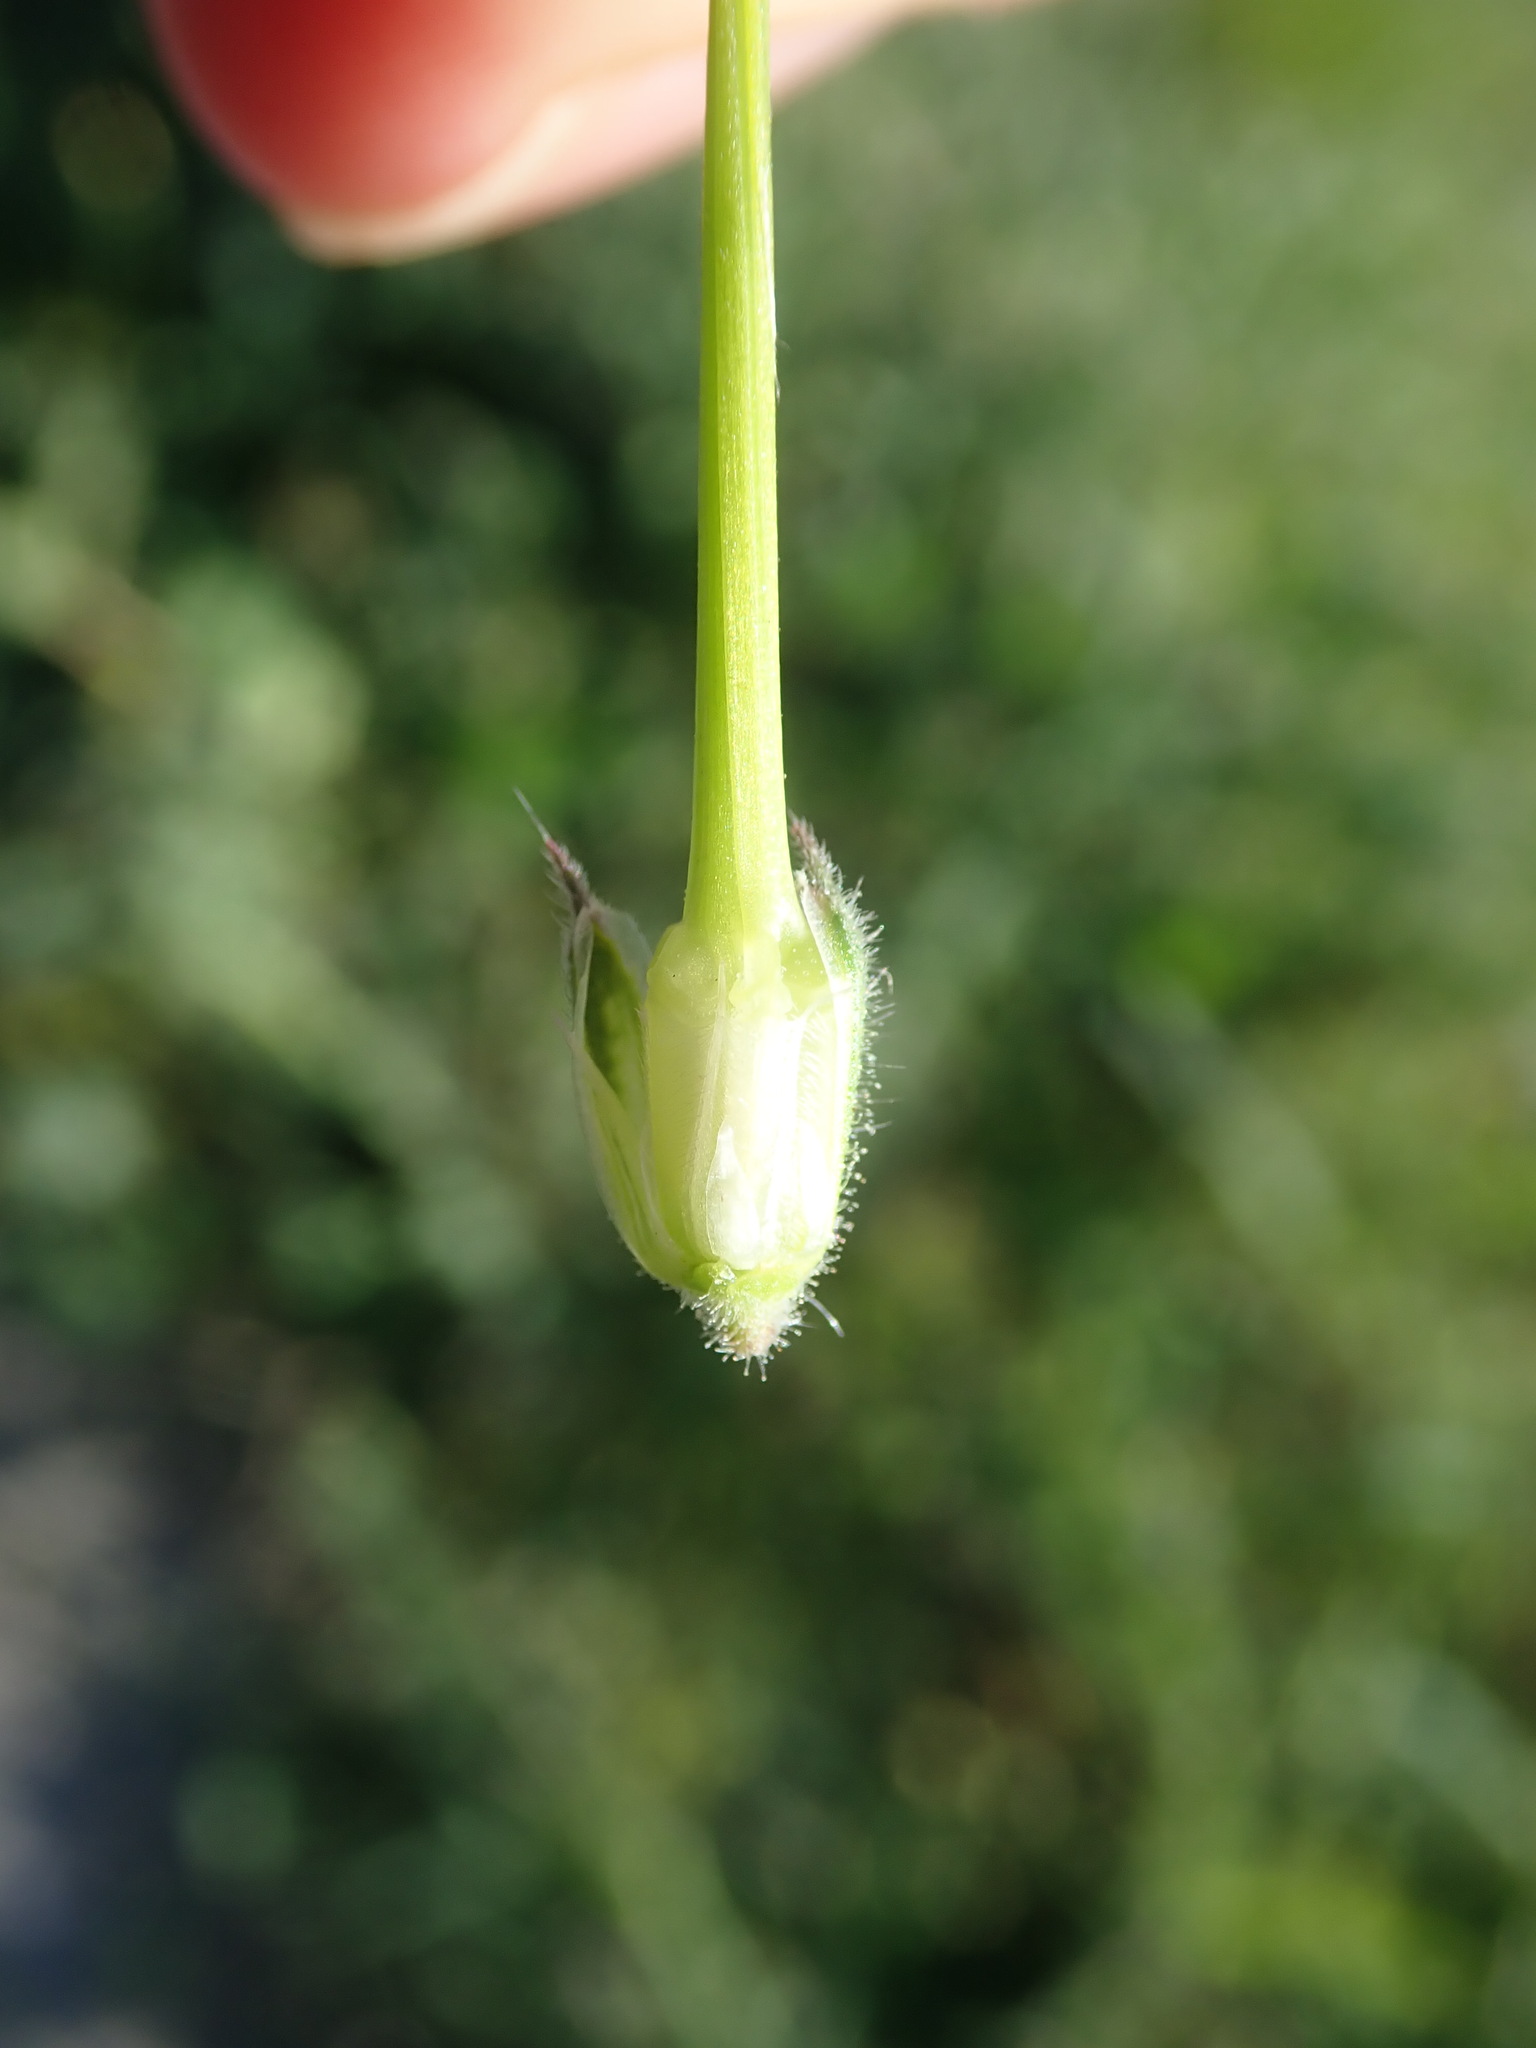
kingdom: Plantae
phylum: Tracheophyta
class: Magnoliopsida
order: Geraniales
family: Geraniaceae
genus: Erodium
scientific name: Erodium malacoides
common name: Soft stork's-bill
